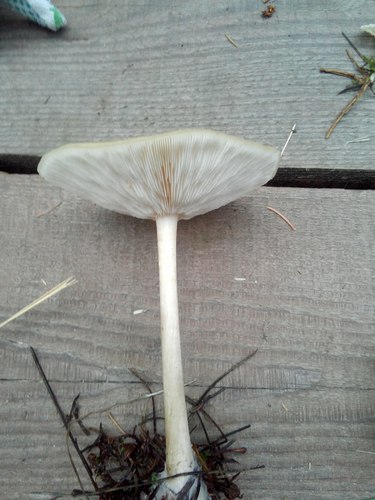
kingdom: Fungi
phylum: Basidiomycota
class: Agaricomycetes
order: Agaricales
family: Tricholomataceae
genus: Melanoleuca
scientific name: Melanoleuca strictipes
